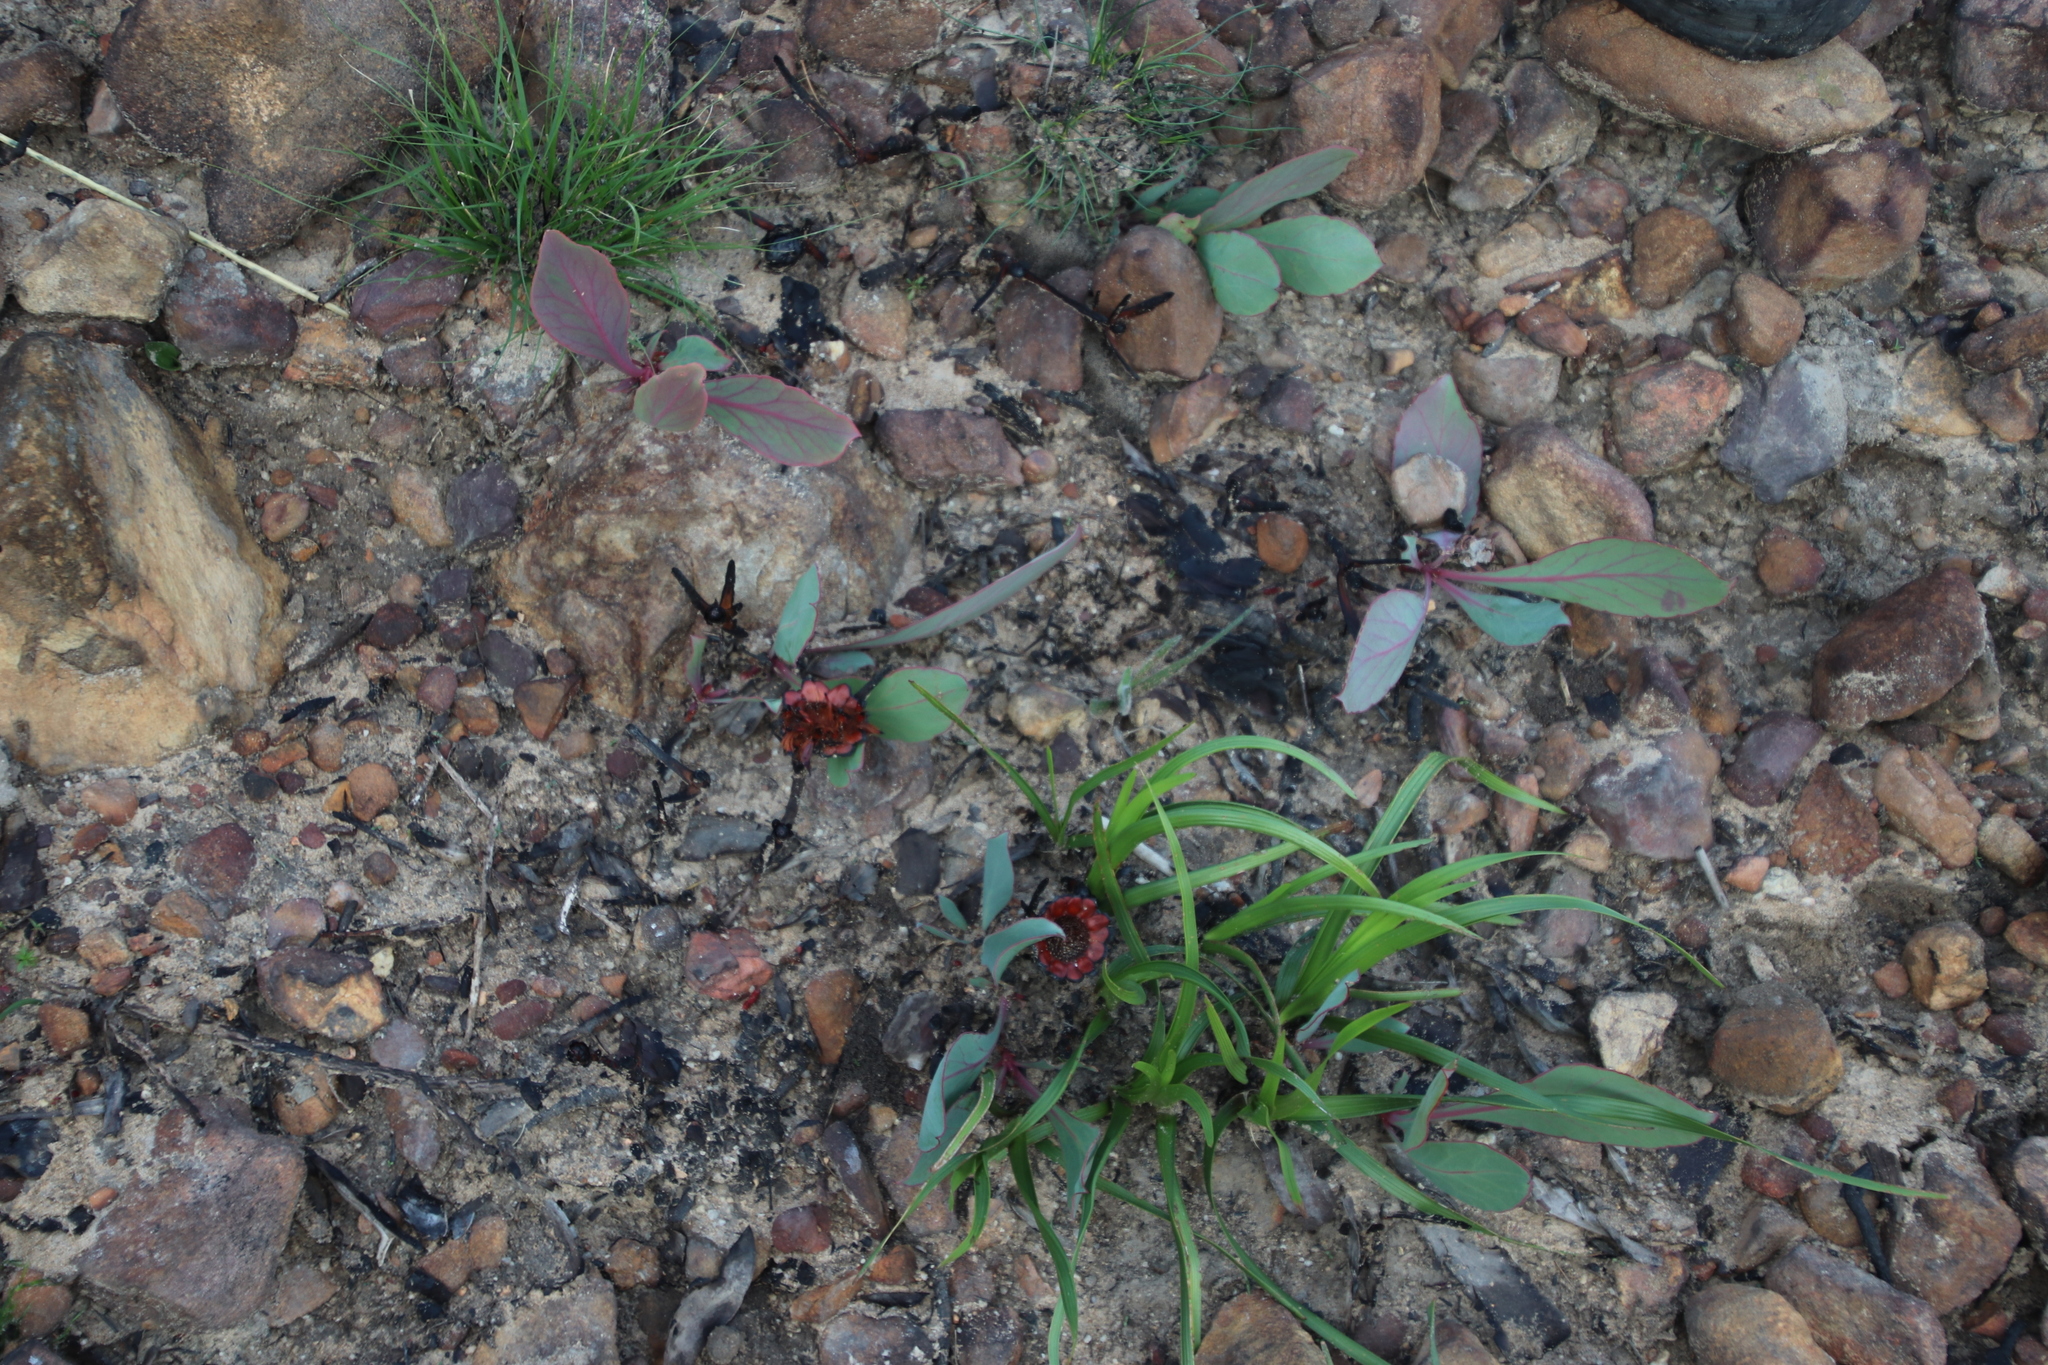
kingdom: Plantae
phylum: Tracheophyta
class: Magnoliopsida
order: Proteales
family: Proteaceae
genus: Protea
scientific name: Protea acaulos
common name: Common ground sugarbush
